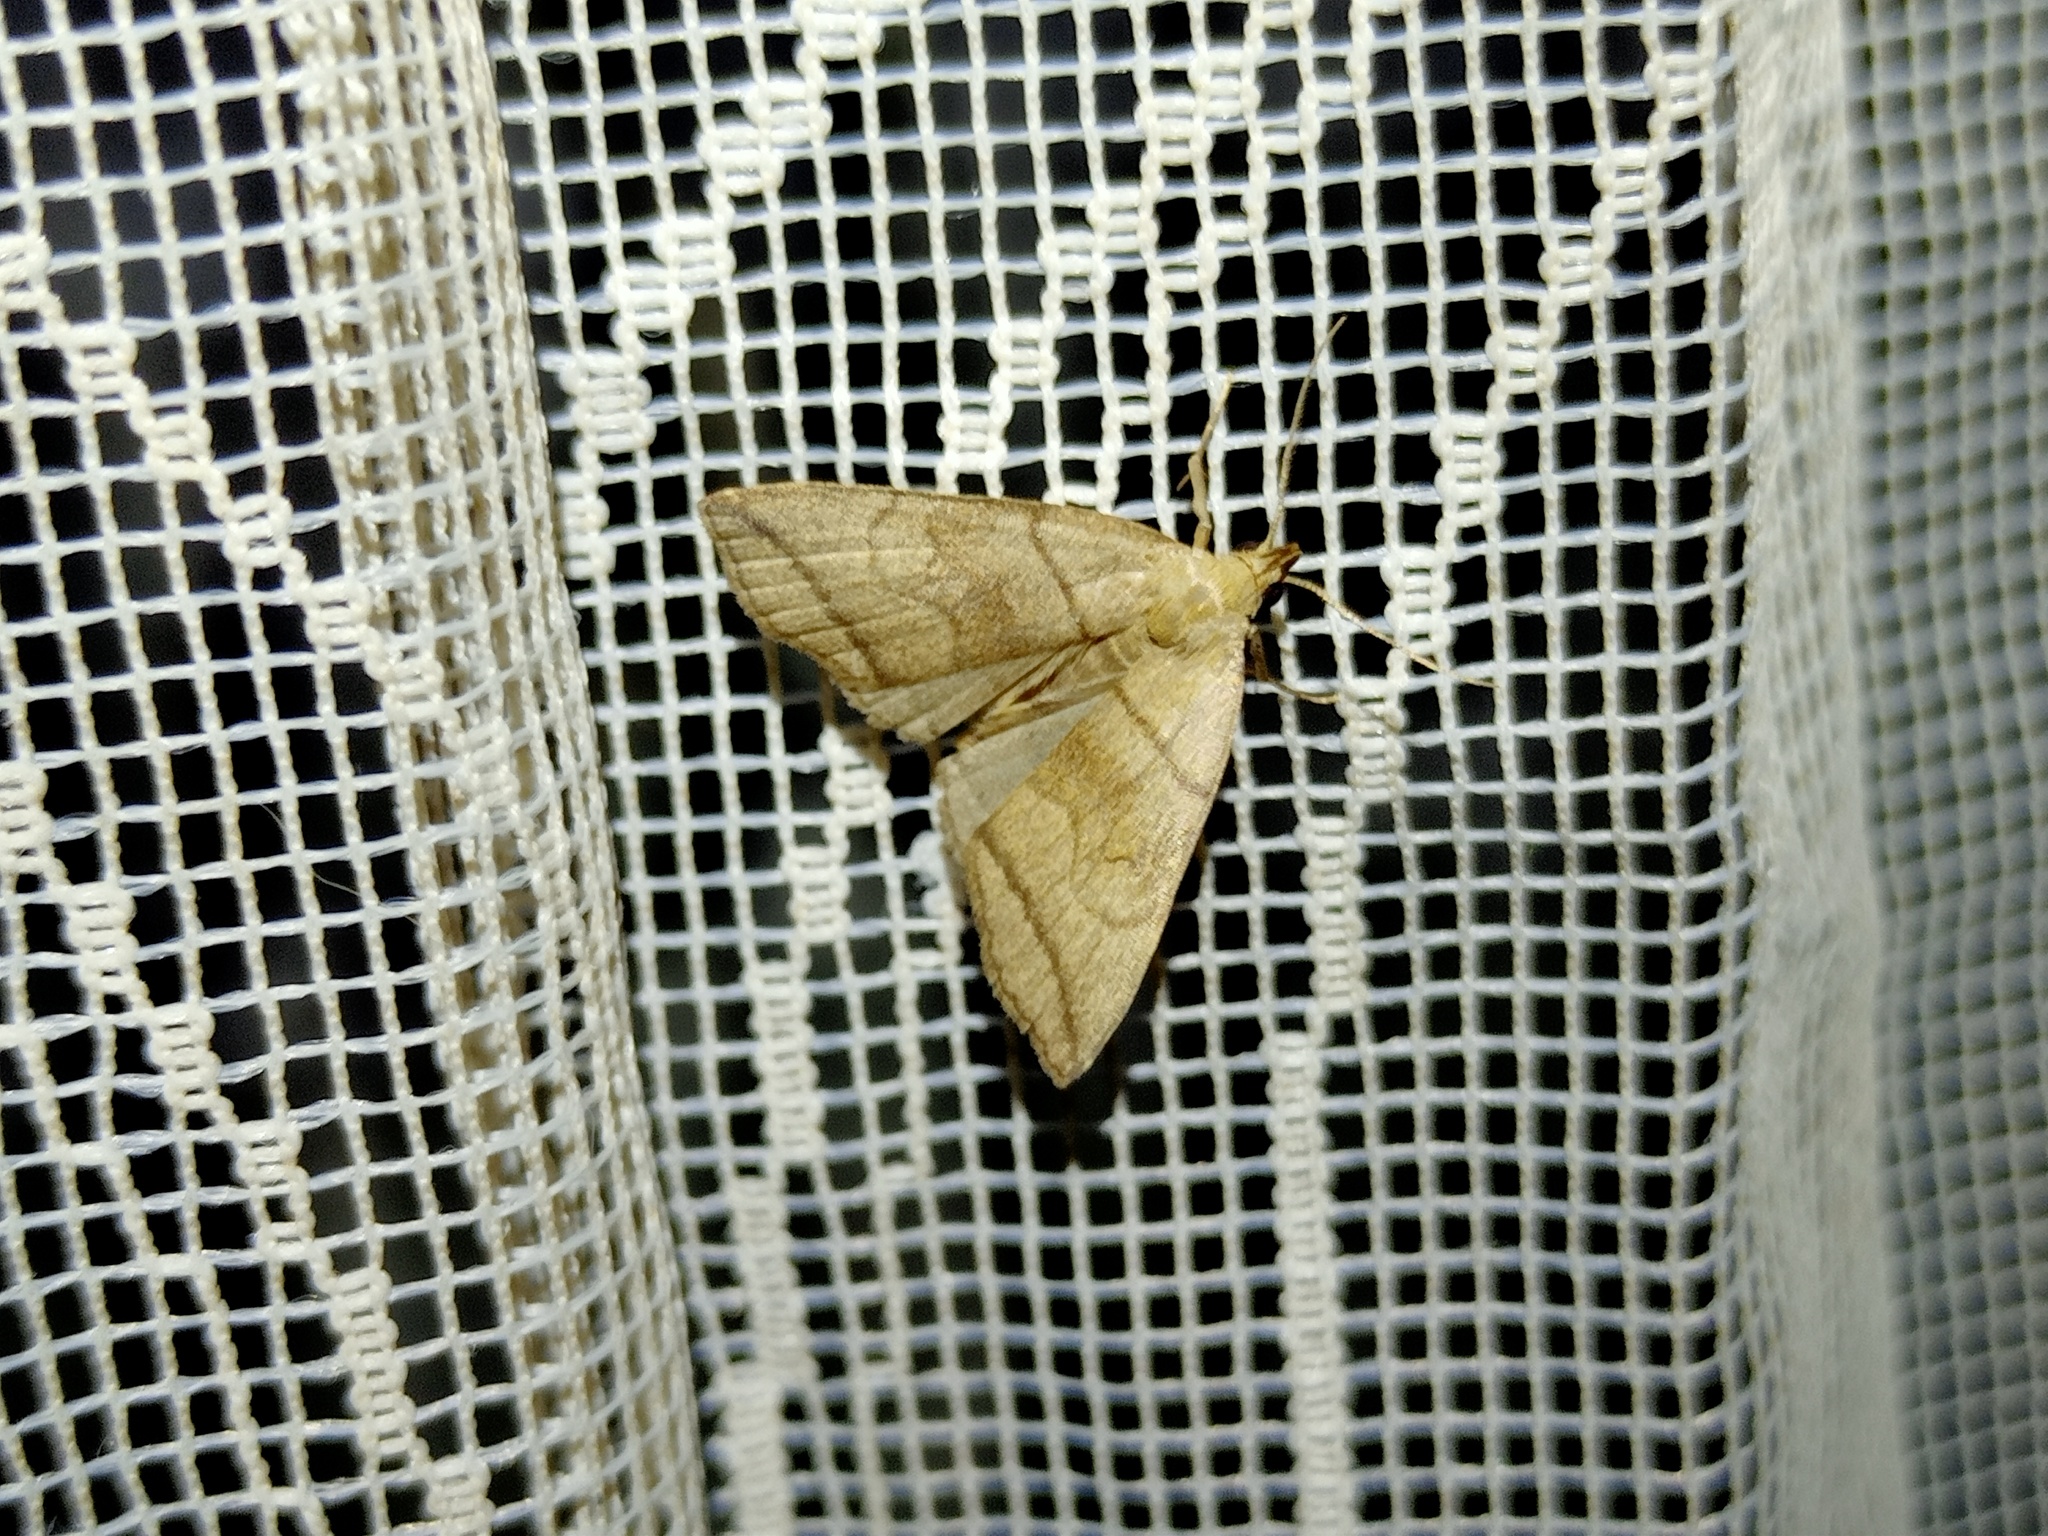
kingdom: Animalia
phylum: Arthropoda
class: Insecta
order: Lepidoptera
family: Erebidae
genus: Herminia
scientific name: Herminia grisealis
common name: Small fan-foot
